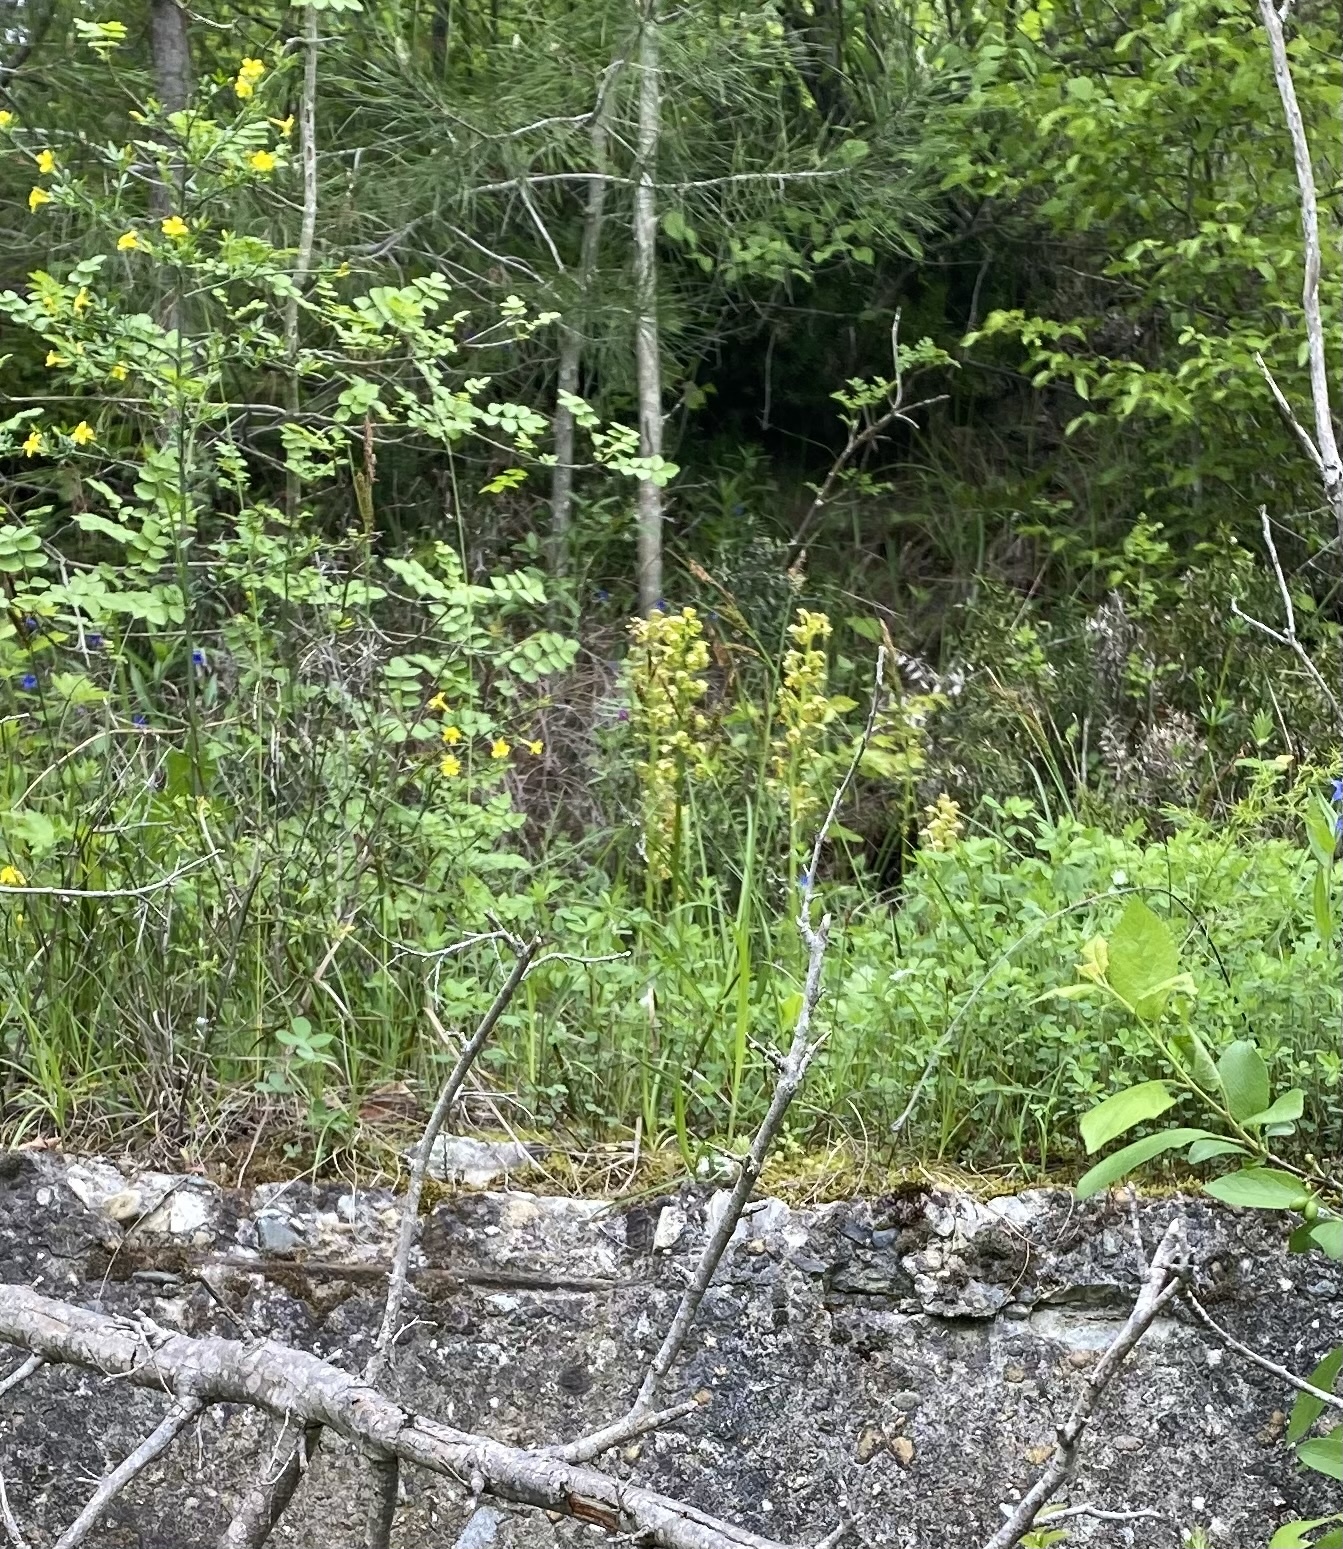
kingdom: Plantae
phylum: Tracheophyta
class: Liliopsida
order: Asparagales
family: Orchidaceae
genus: Orchis
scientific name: Orchis punctulata
